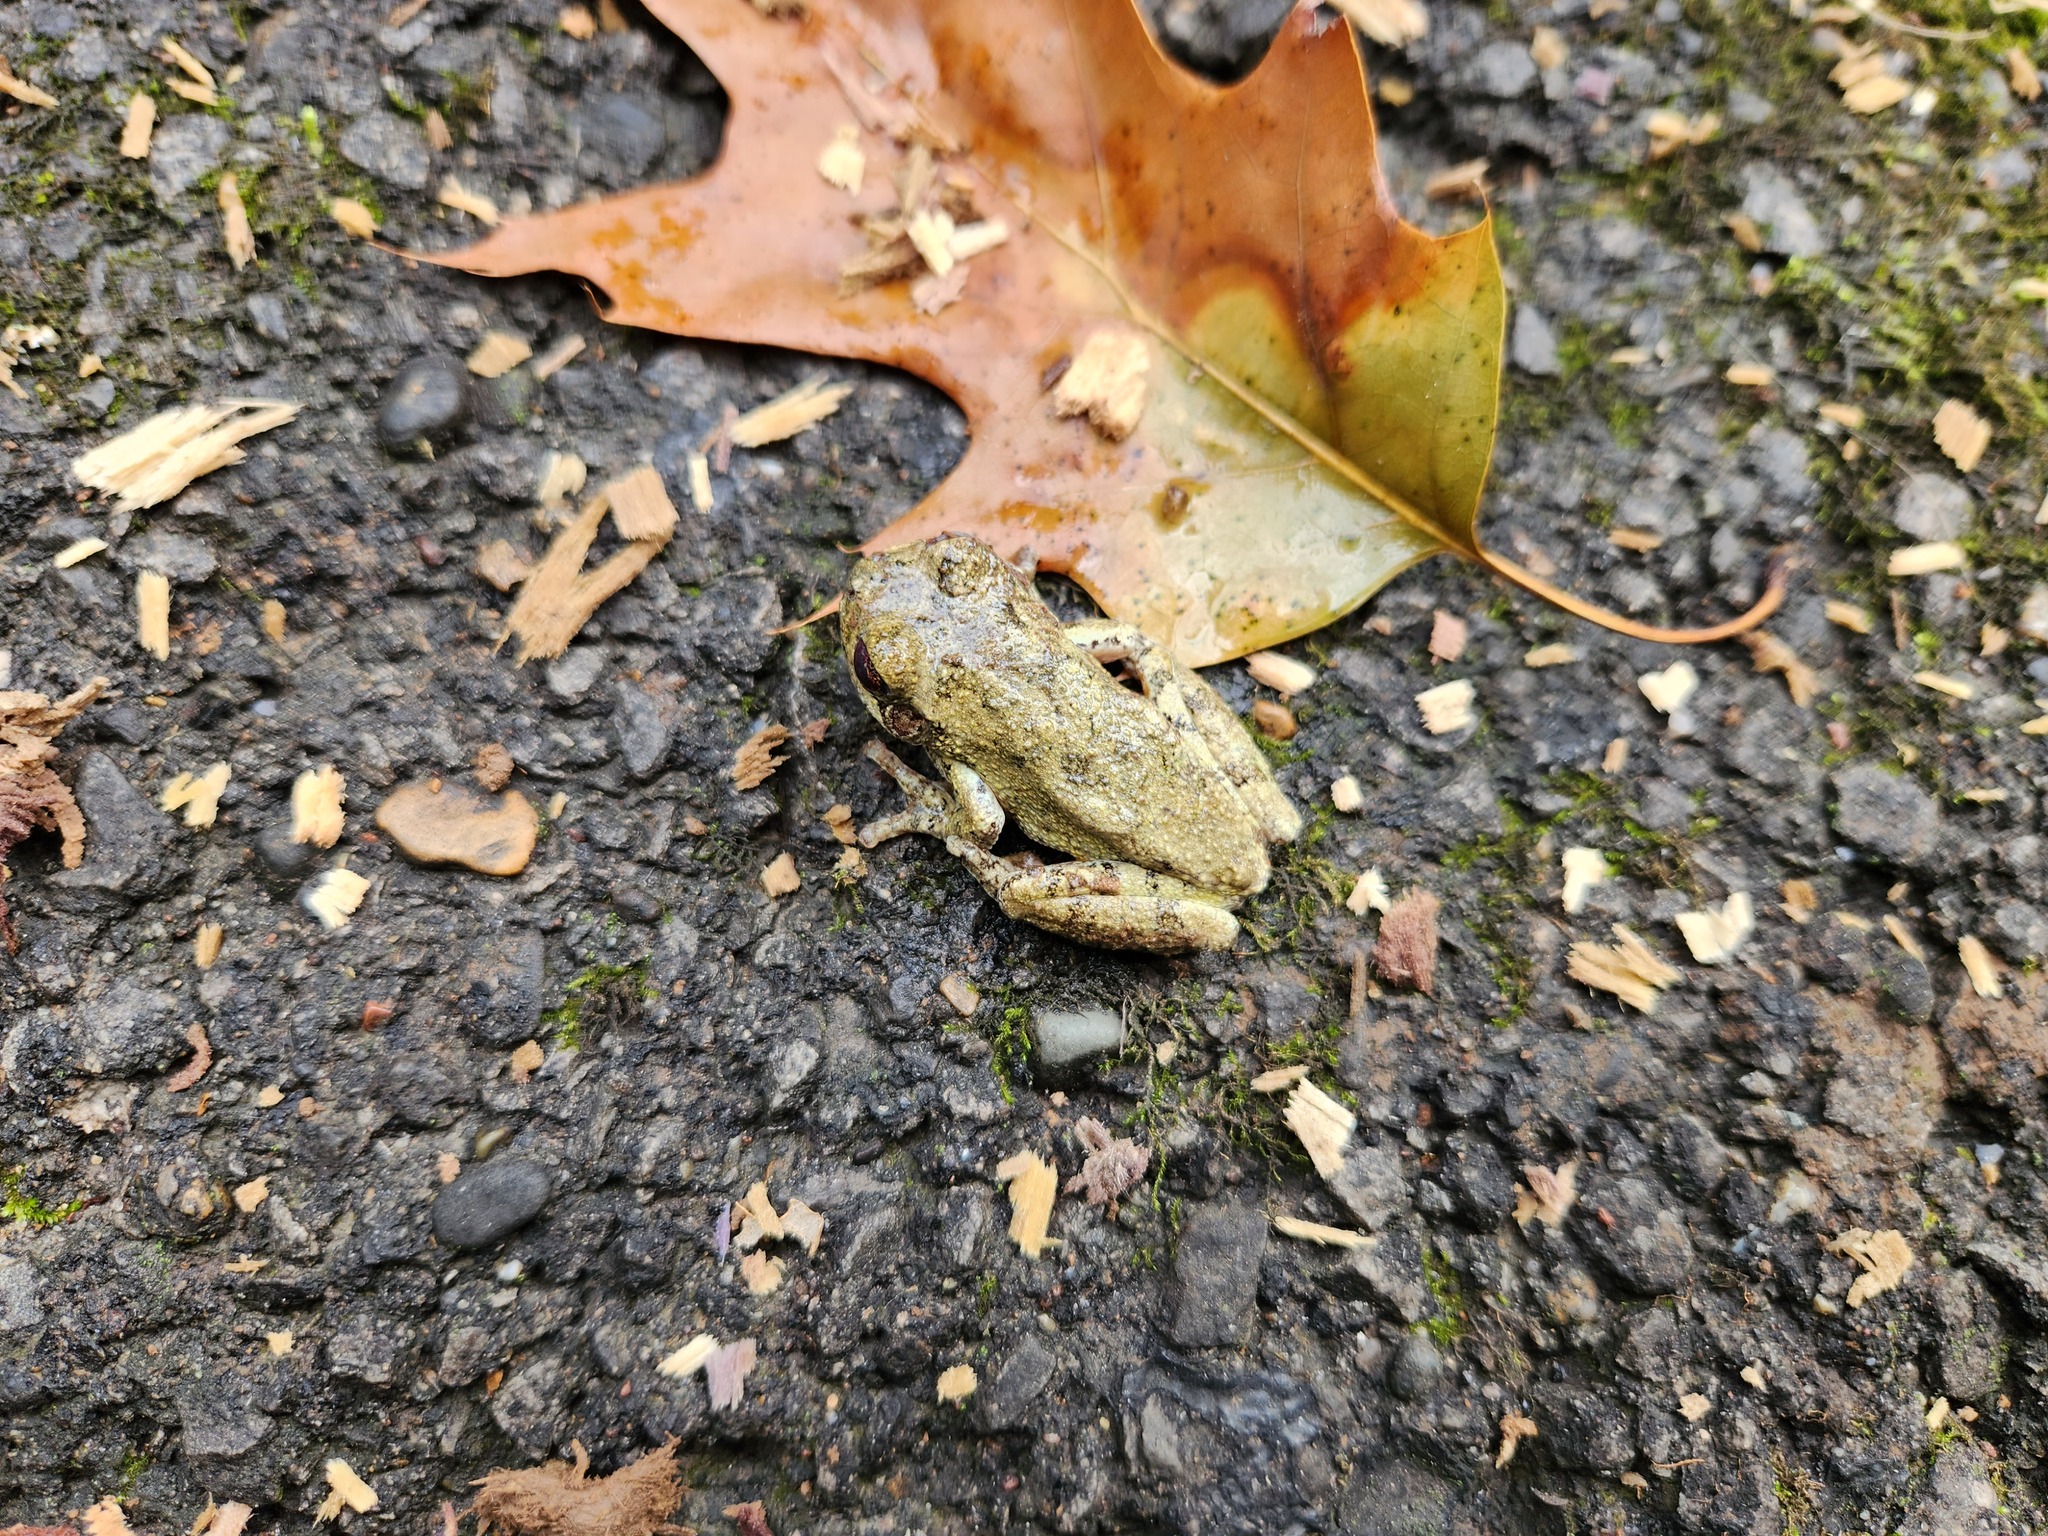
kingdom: Animalia
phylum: Chordata
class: Amphibia
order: Anura
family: Hylidae
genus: Dryophytes
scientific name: Dryophytes chrysoscelis
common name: Cope's gray treefrog
